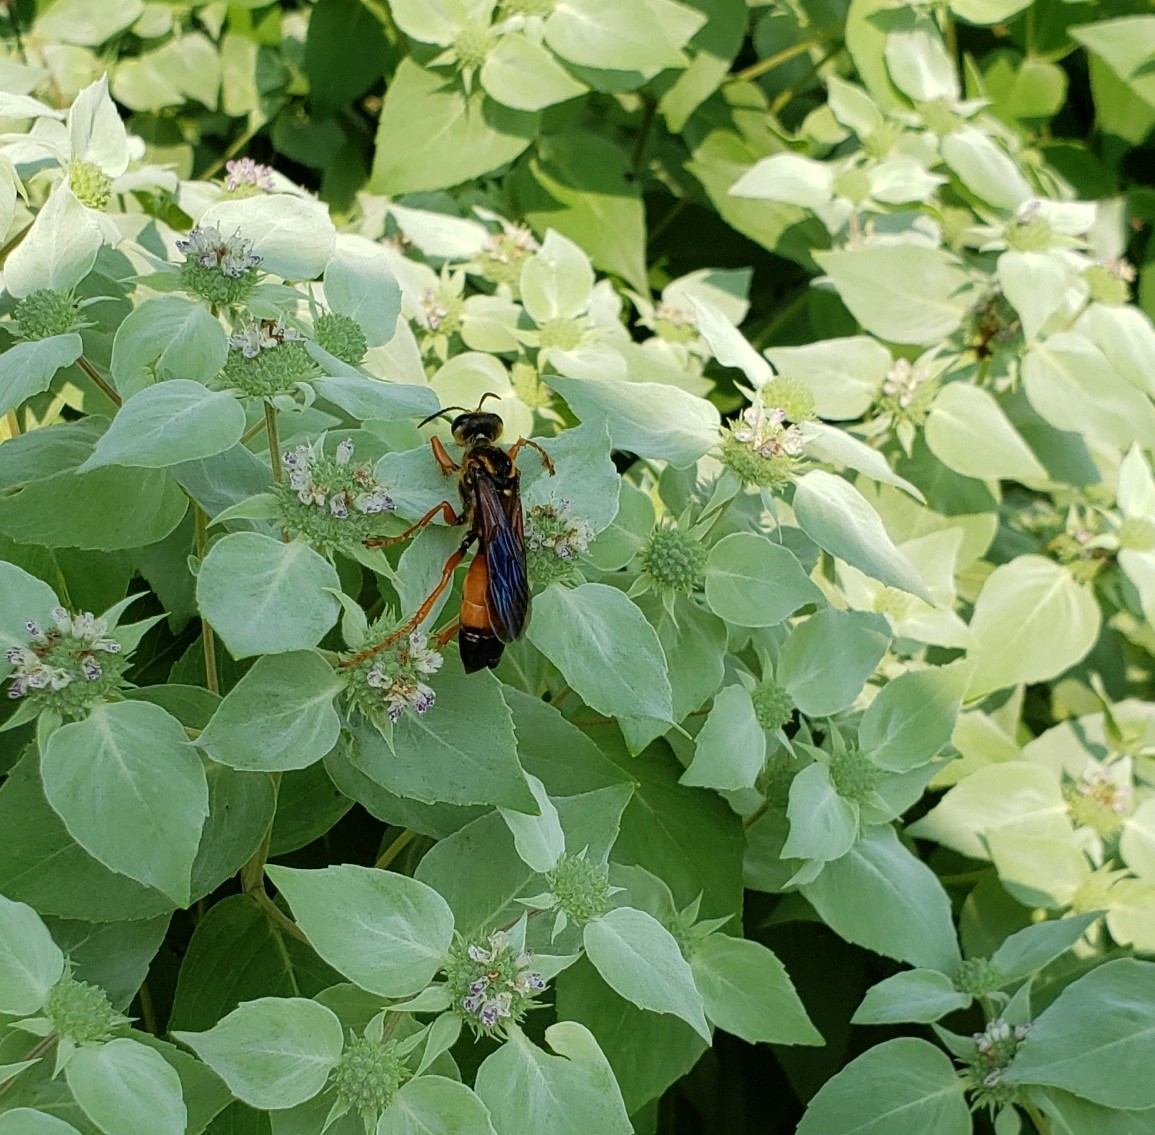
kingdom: Animalia
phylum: Arthropoda
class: Insecta
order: Hymenoptera
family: Sphecidae
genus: Sphex
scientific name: Sphex ichneumoneus
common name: Great golden digger wasp
